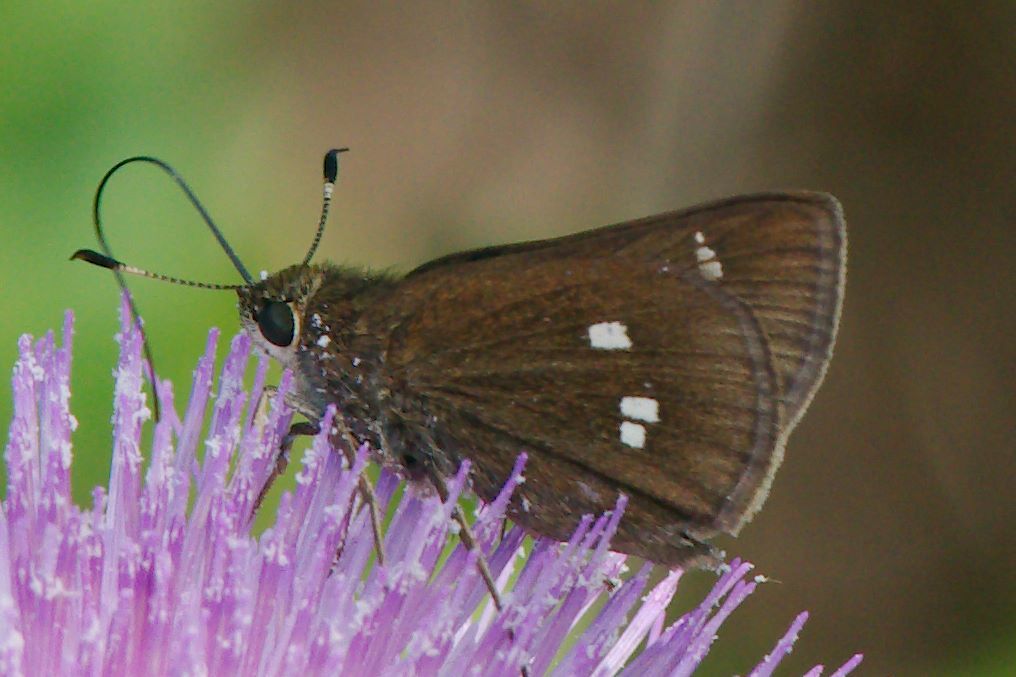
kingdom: Animalia
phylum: Arthropoda
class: Insecta
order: Lepidoptera
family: Hesperiidae
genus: Oligoria
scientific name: Oligoria maculata
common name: Twin-spot skipper
